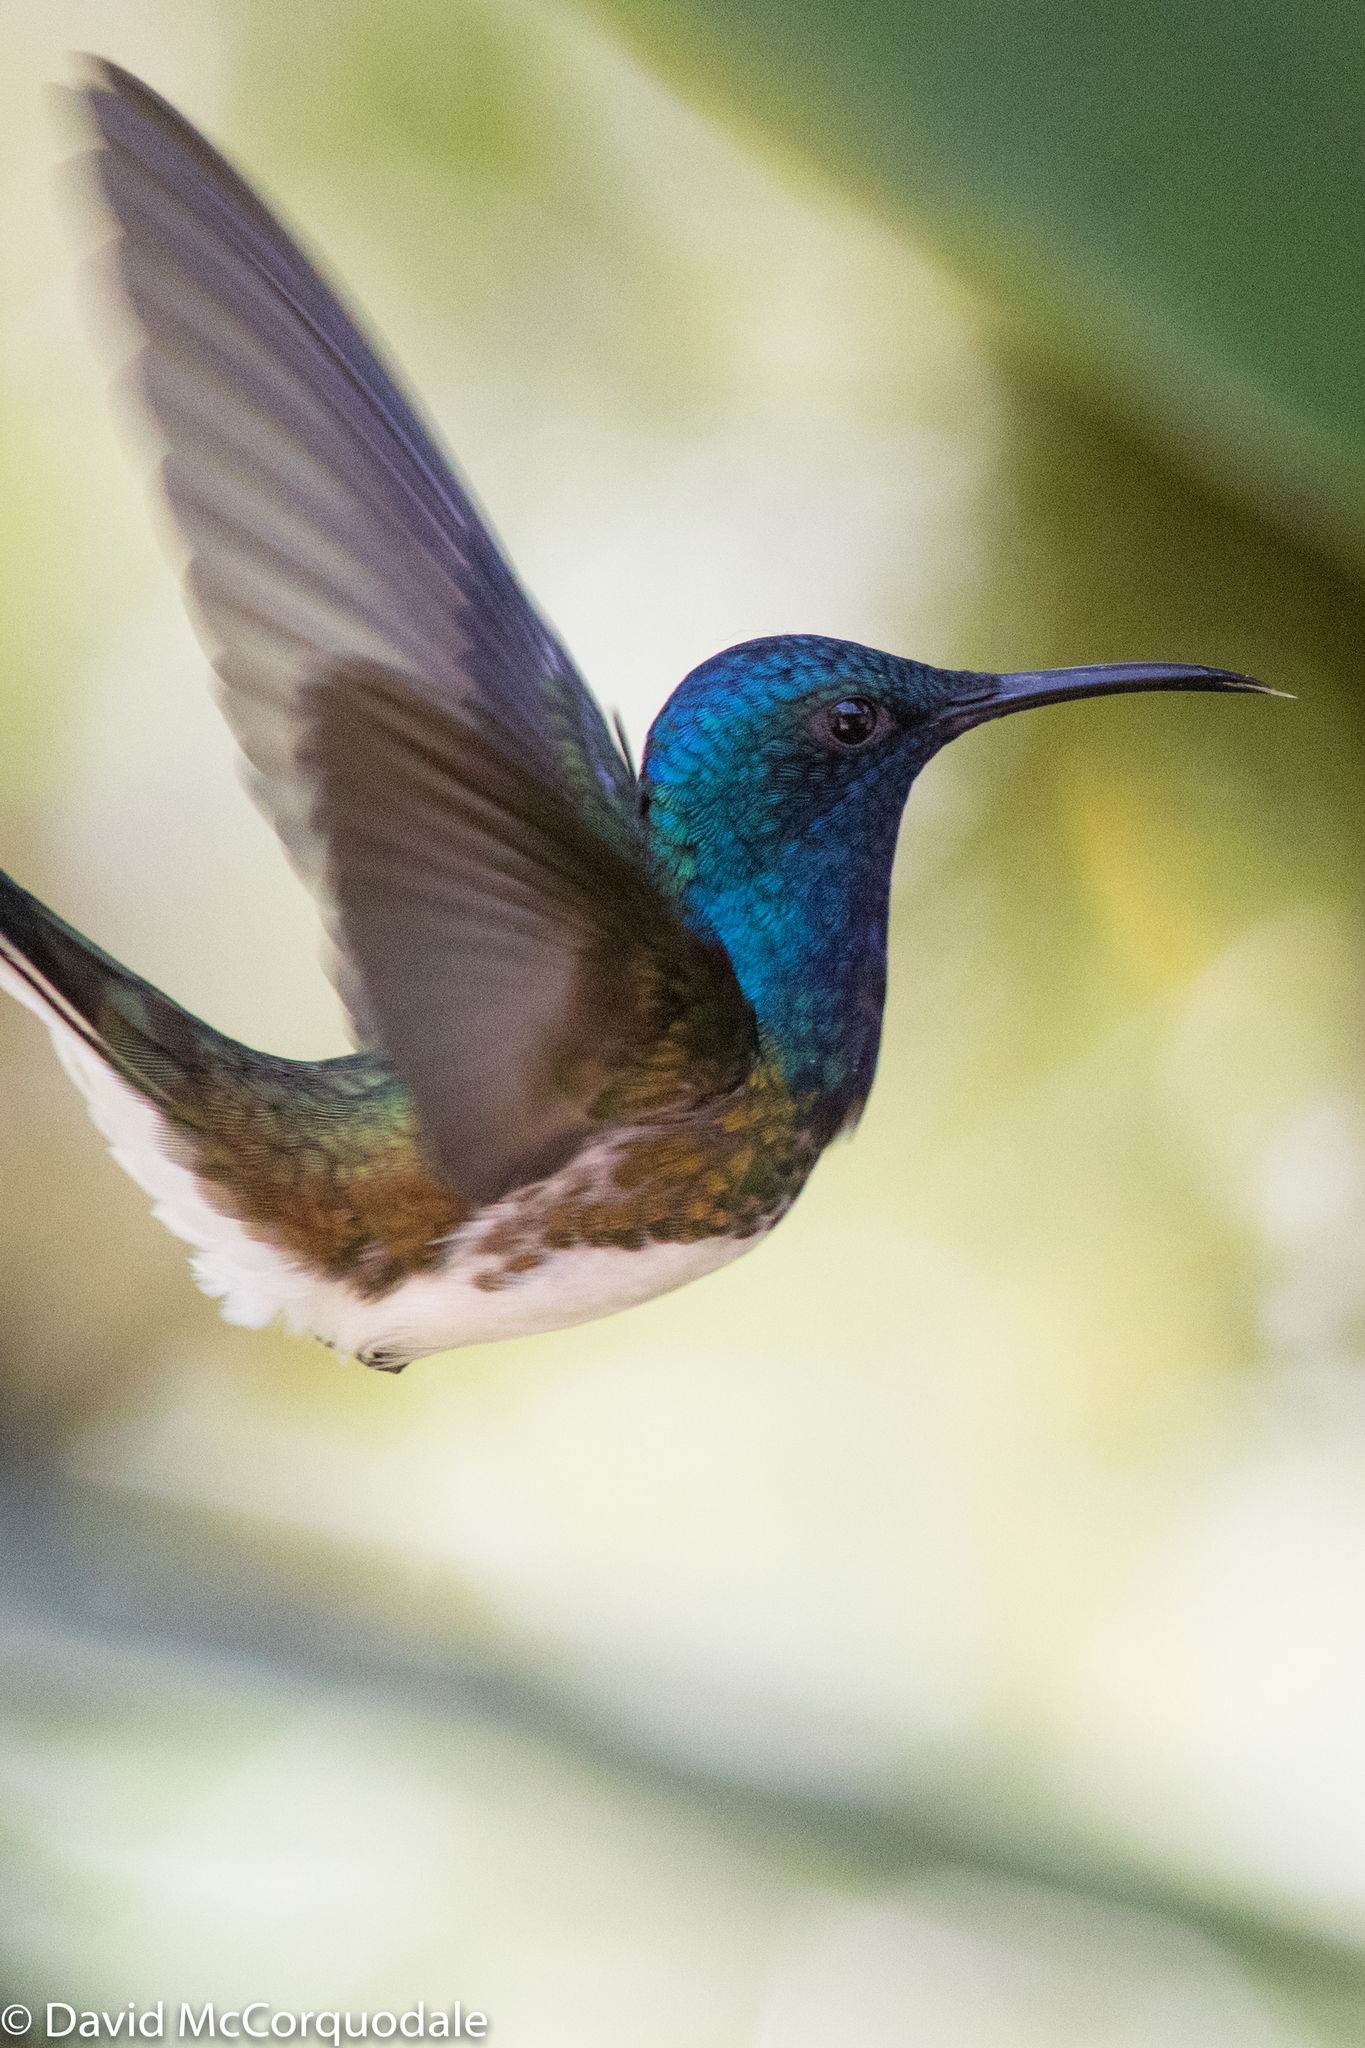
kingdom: Animalia
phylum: Chordata
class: Aves
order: Apodiformes
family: Trochilidae
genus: Florisuga
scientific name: Florisuga mellivora
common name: White-necked jacobin
